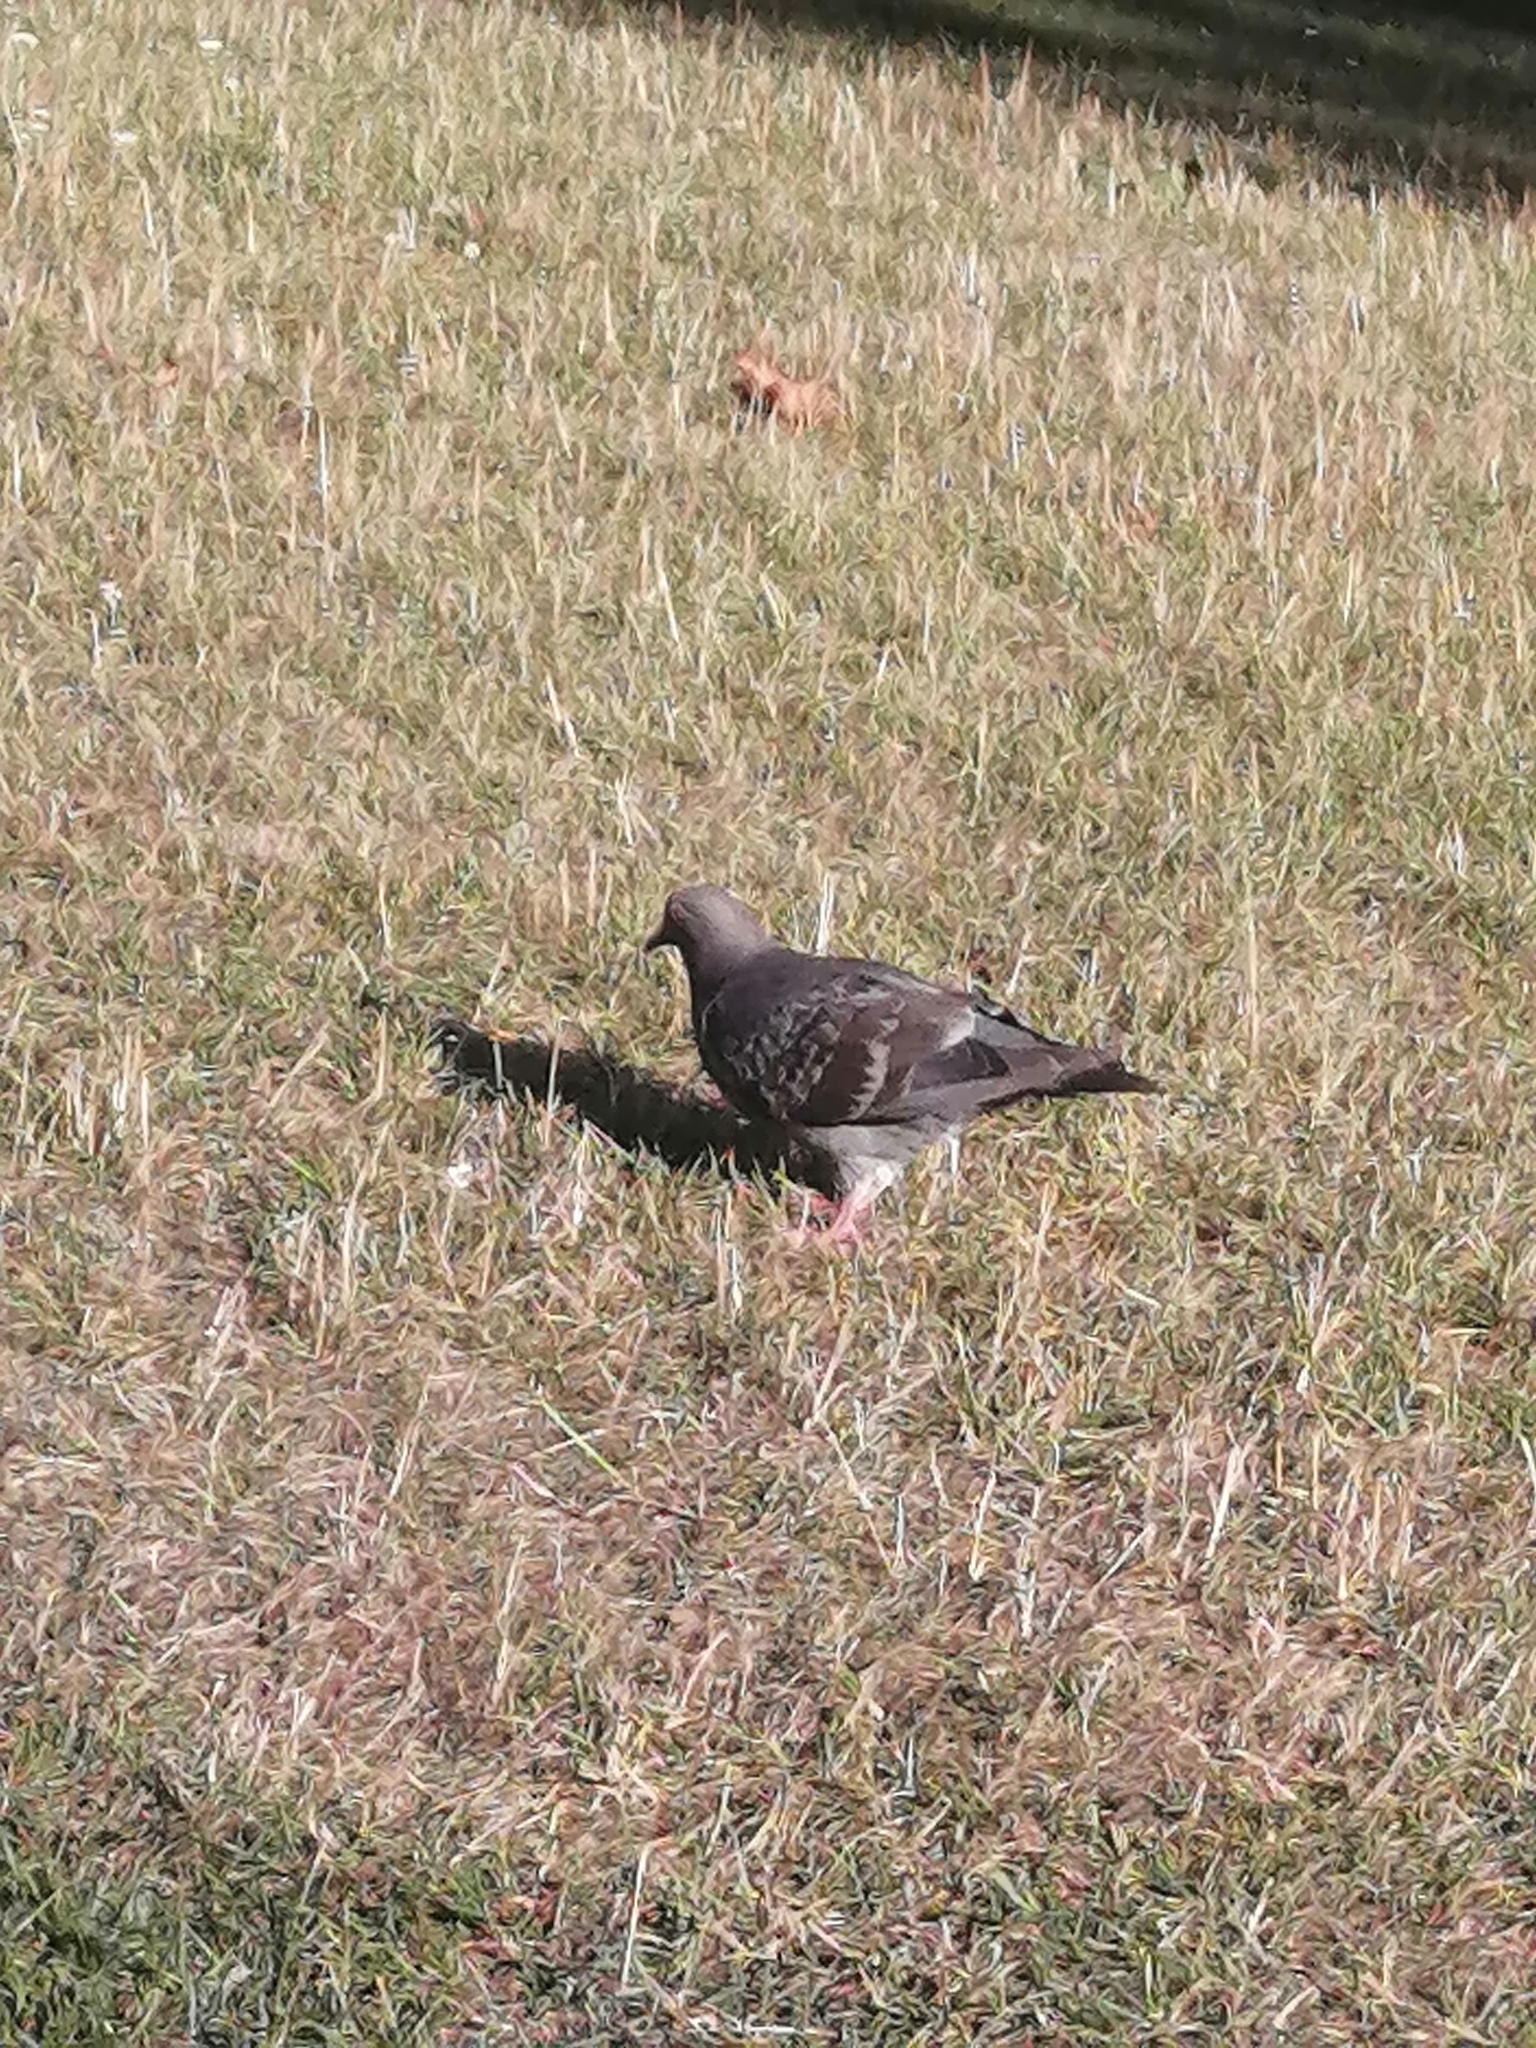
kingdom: Animalia
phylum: Chordata
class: Aves
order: Columbiformes
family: Columbidae
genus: Columba
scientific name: Columba livia
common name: Rock pigeon
